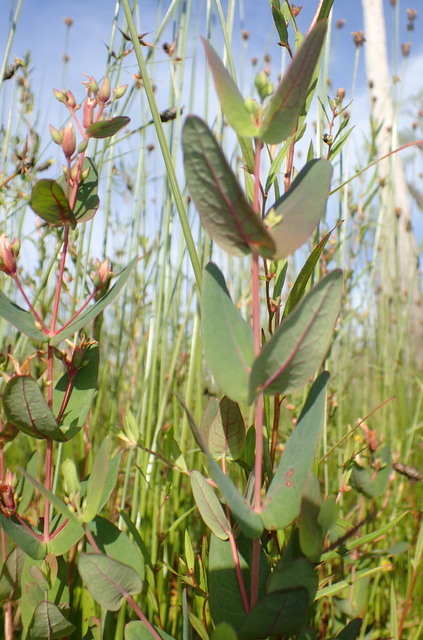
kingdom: Plantae
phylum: Tracheophyta
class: Magnoliopsida
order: Malpighiales
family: Hypericaceae
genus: Triadenum
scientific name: Triadenum virginicum
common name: Marsh st. john's-wort
